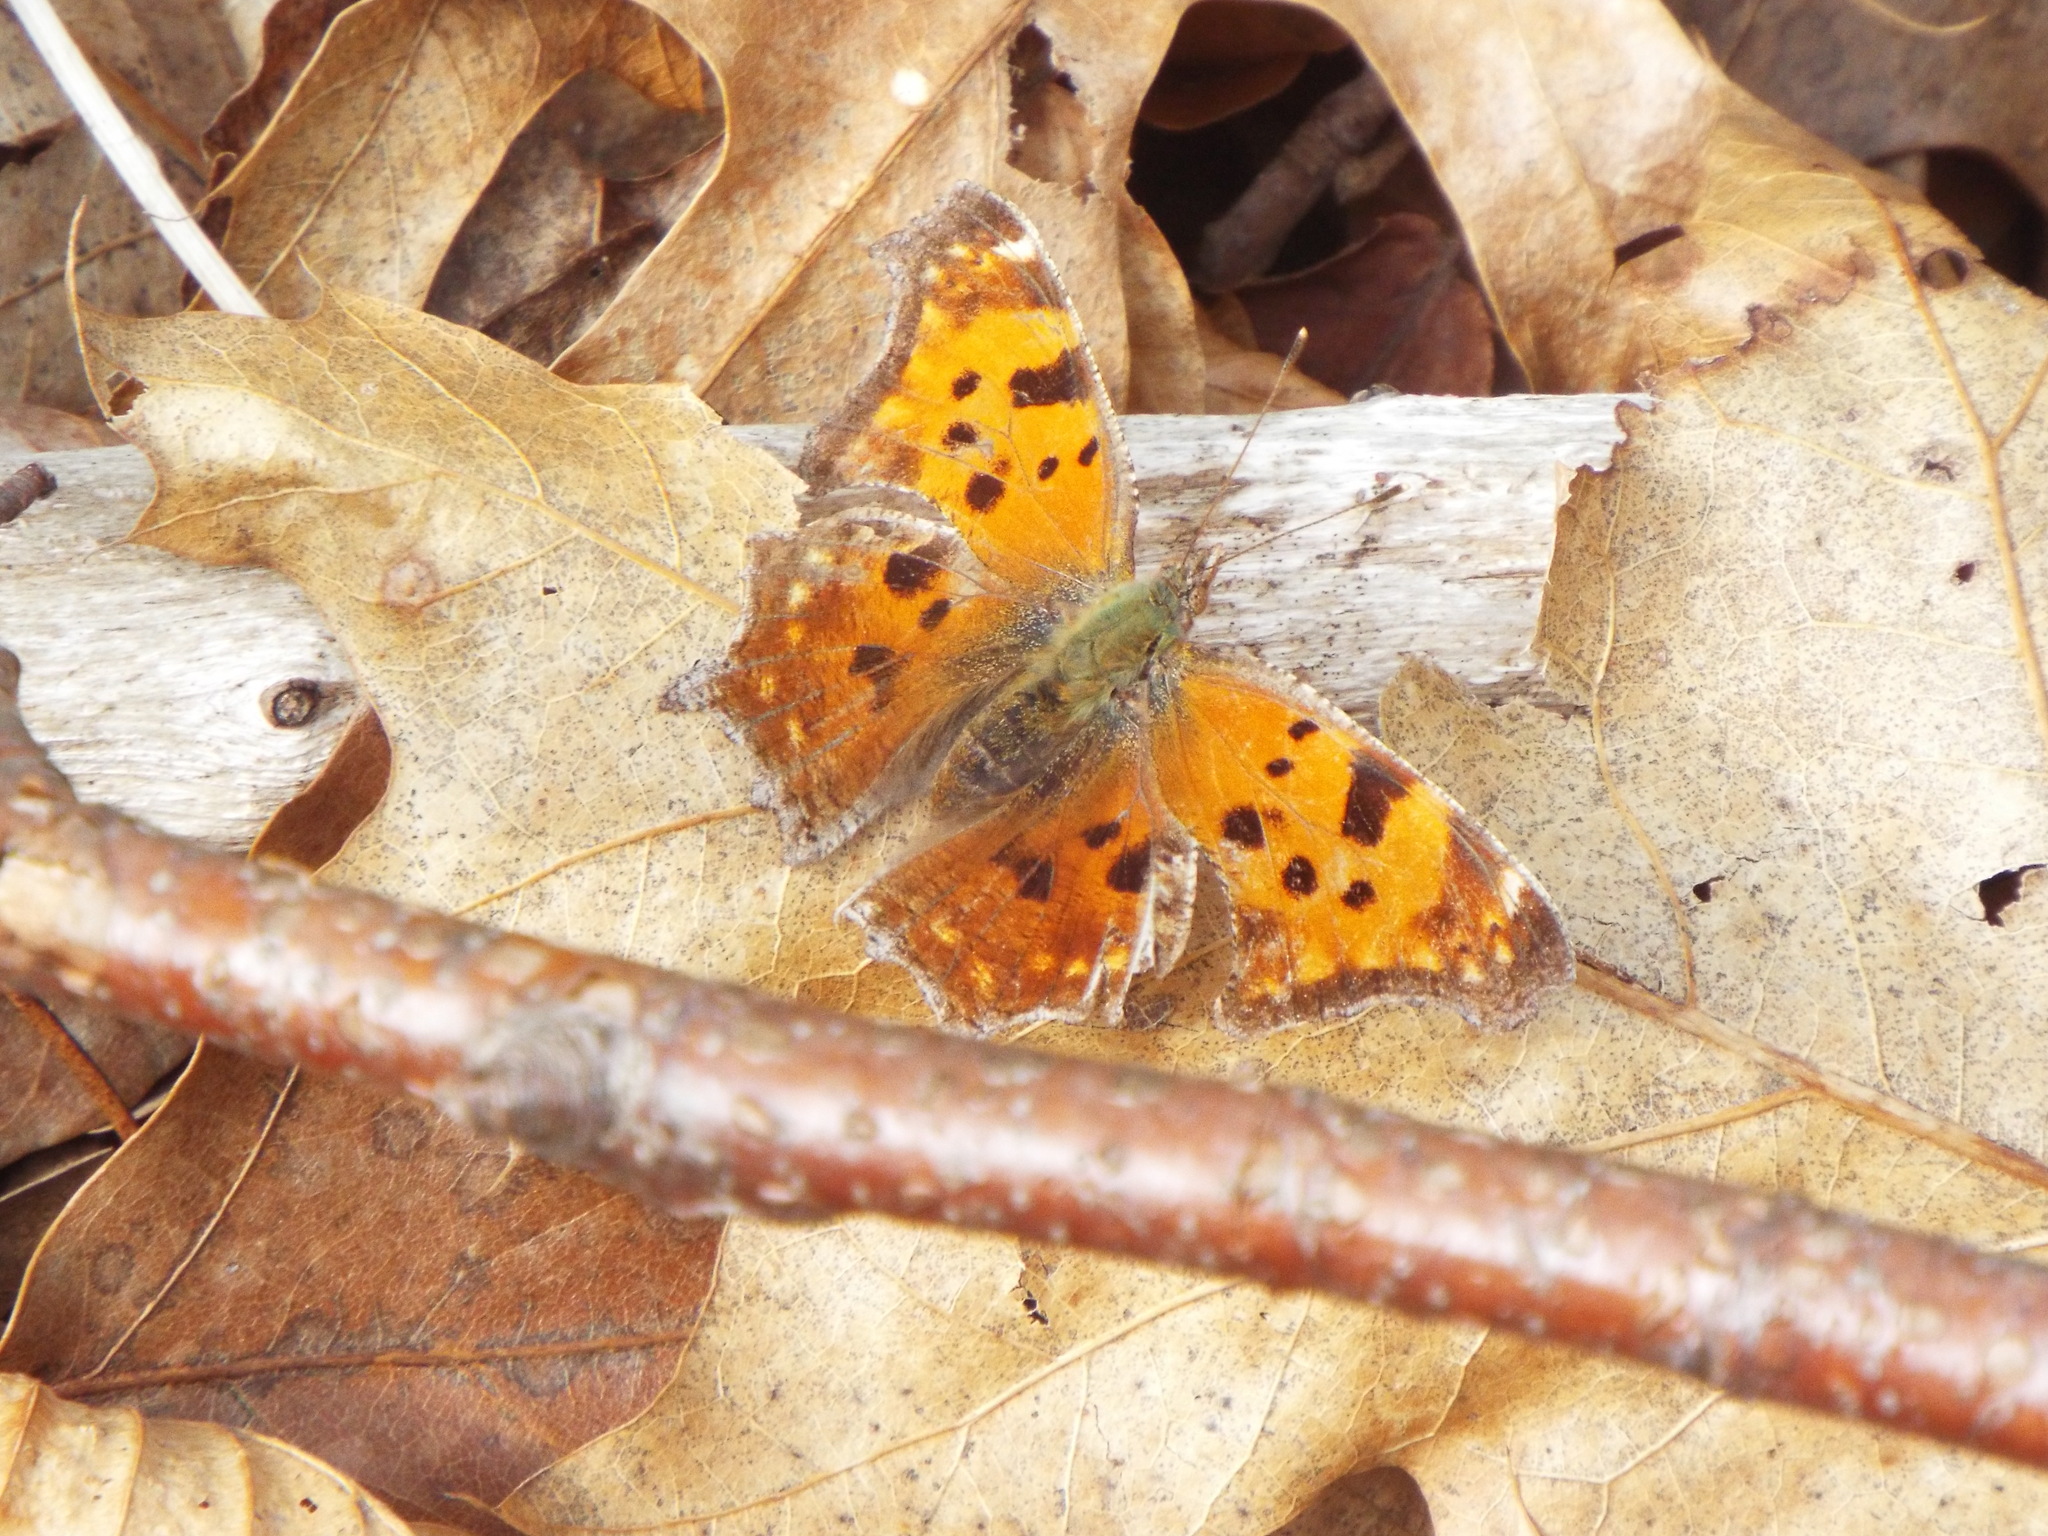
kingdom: Animalia
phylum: Arthropoda
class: Insecta
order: Lepidoptera
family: Nymphalidae
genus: Polygonia
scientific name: Polygonia comma
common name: Eastern comma
